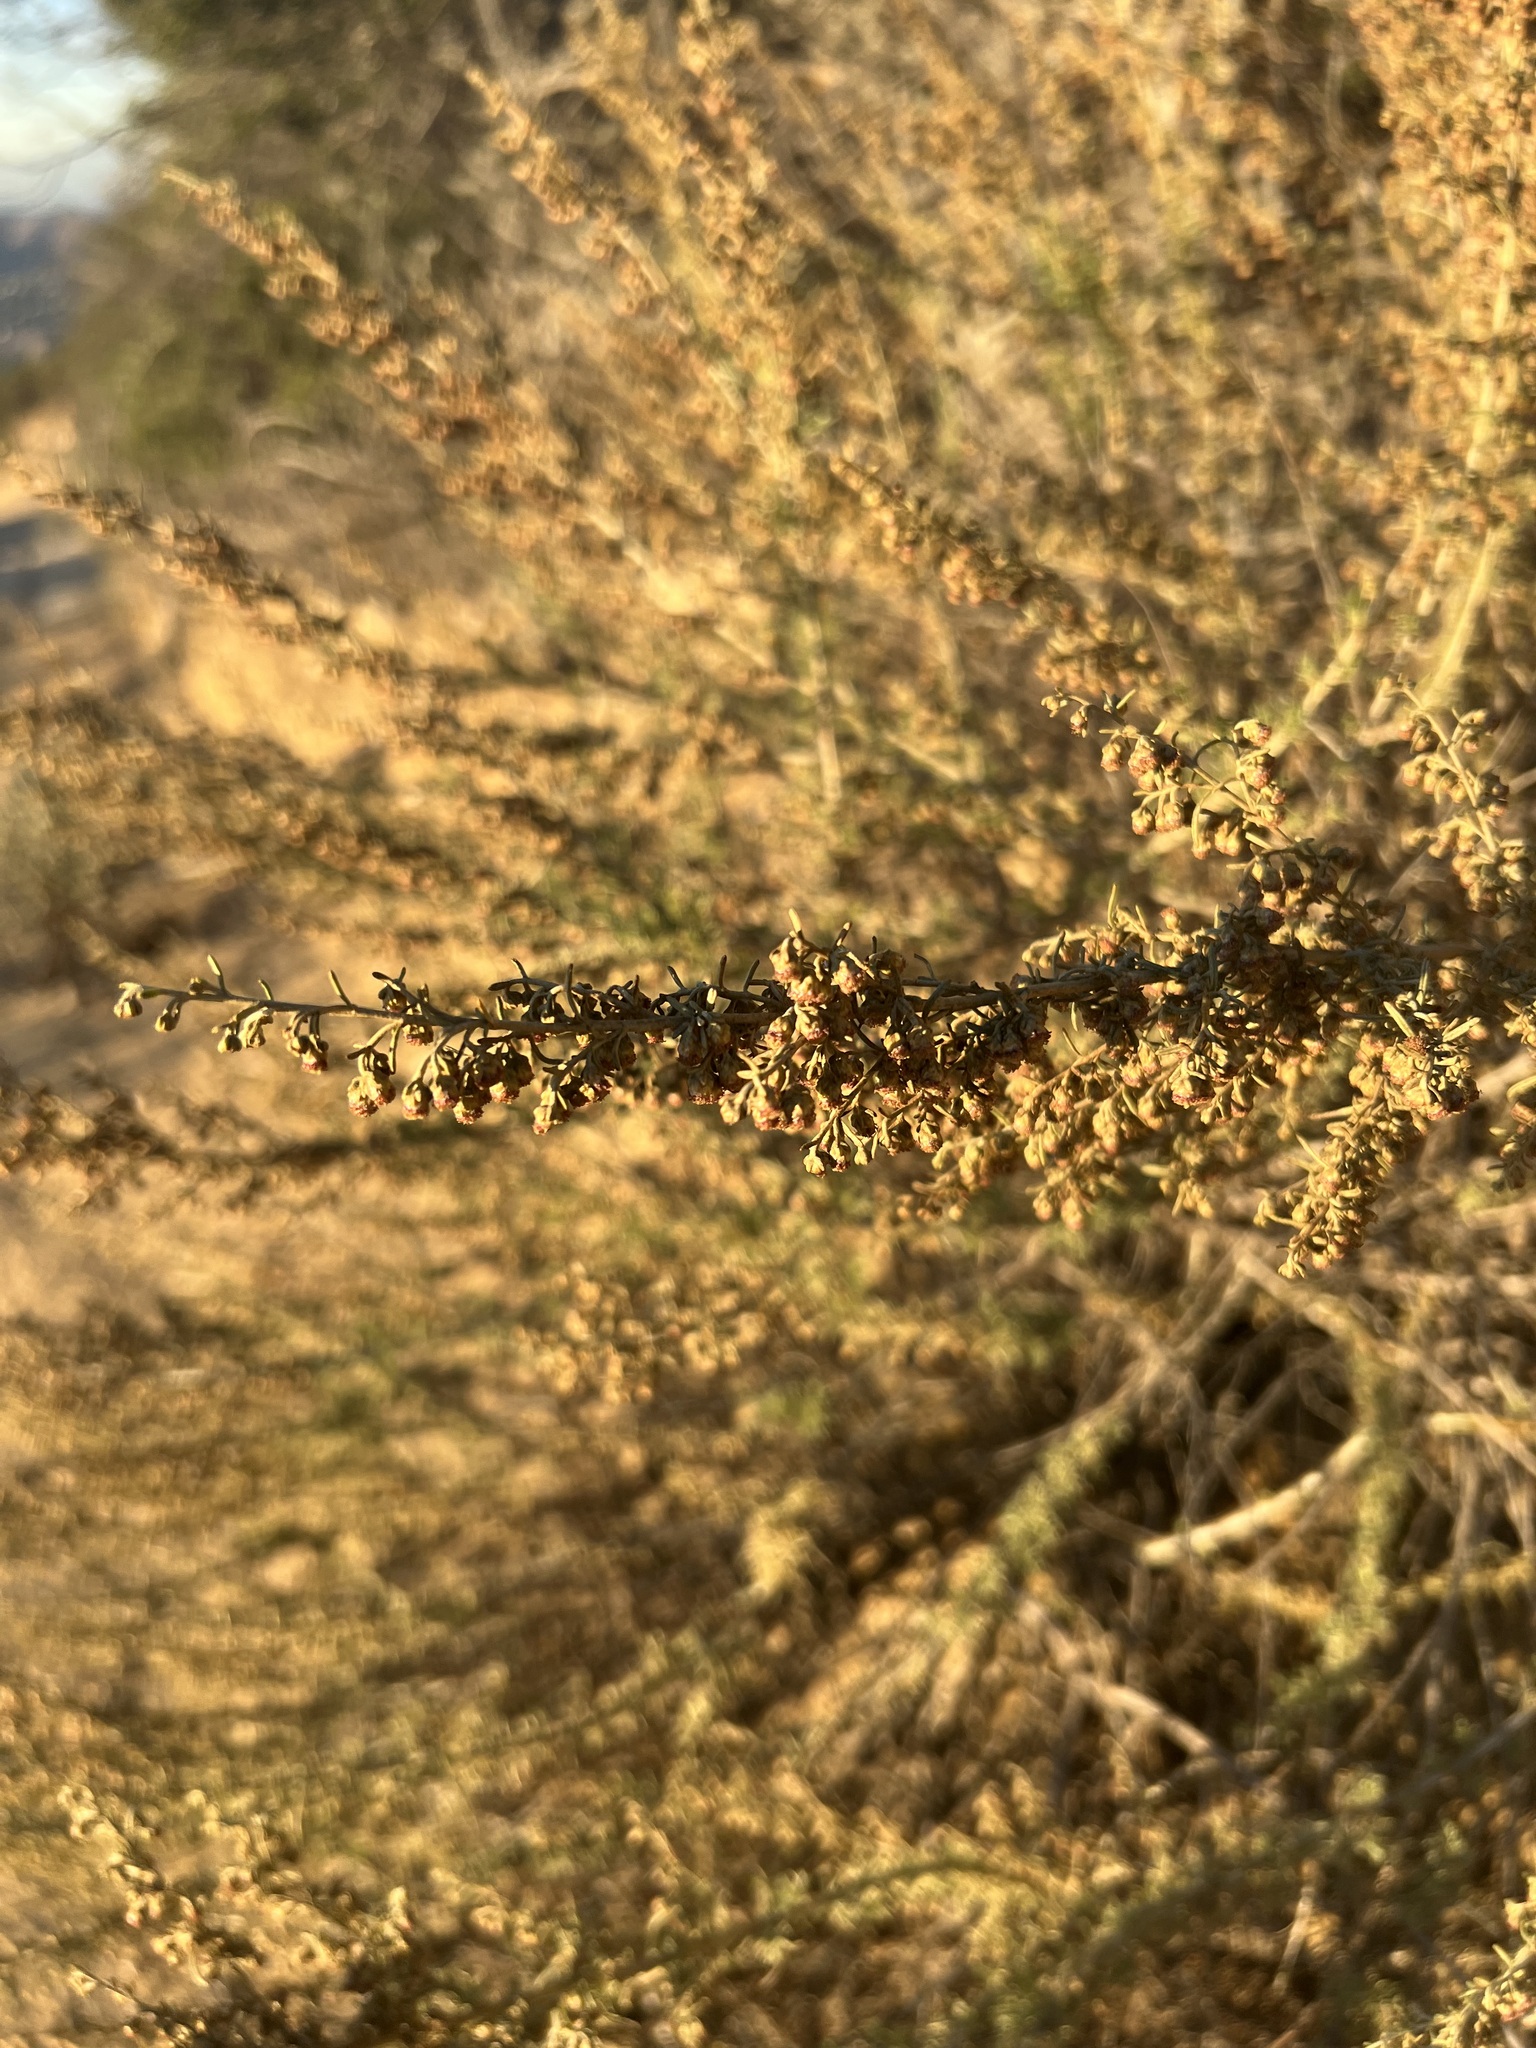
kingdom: Plantae
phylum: Tracheophyta
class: Magnoliopsida
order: Asterales
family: Asteraceae
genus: Artemisia
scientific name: Artemisia californica
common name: California sagebrush
